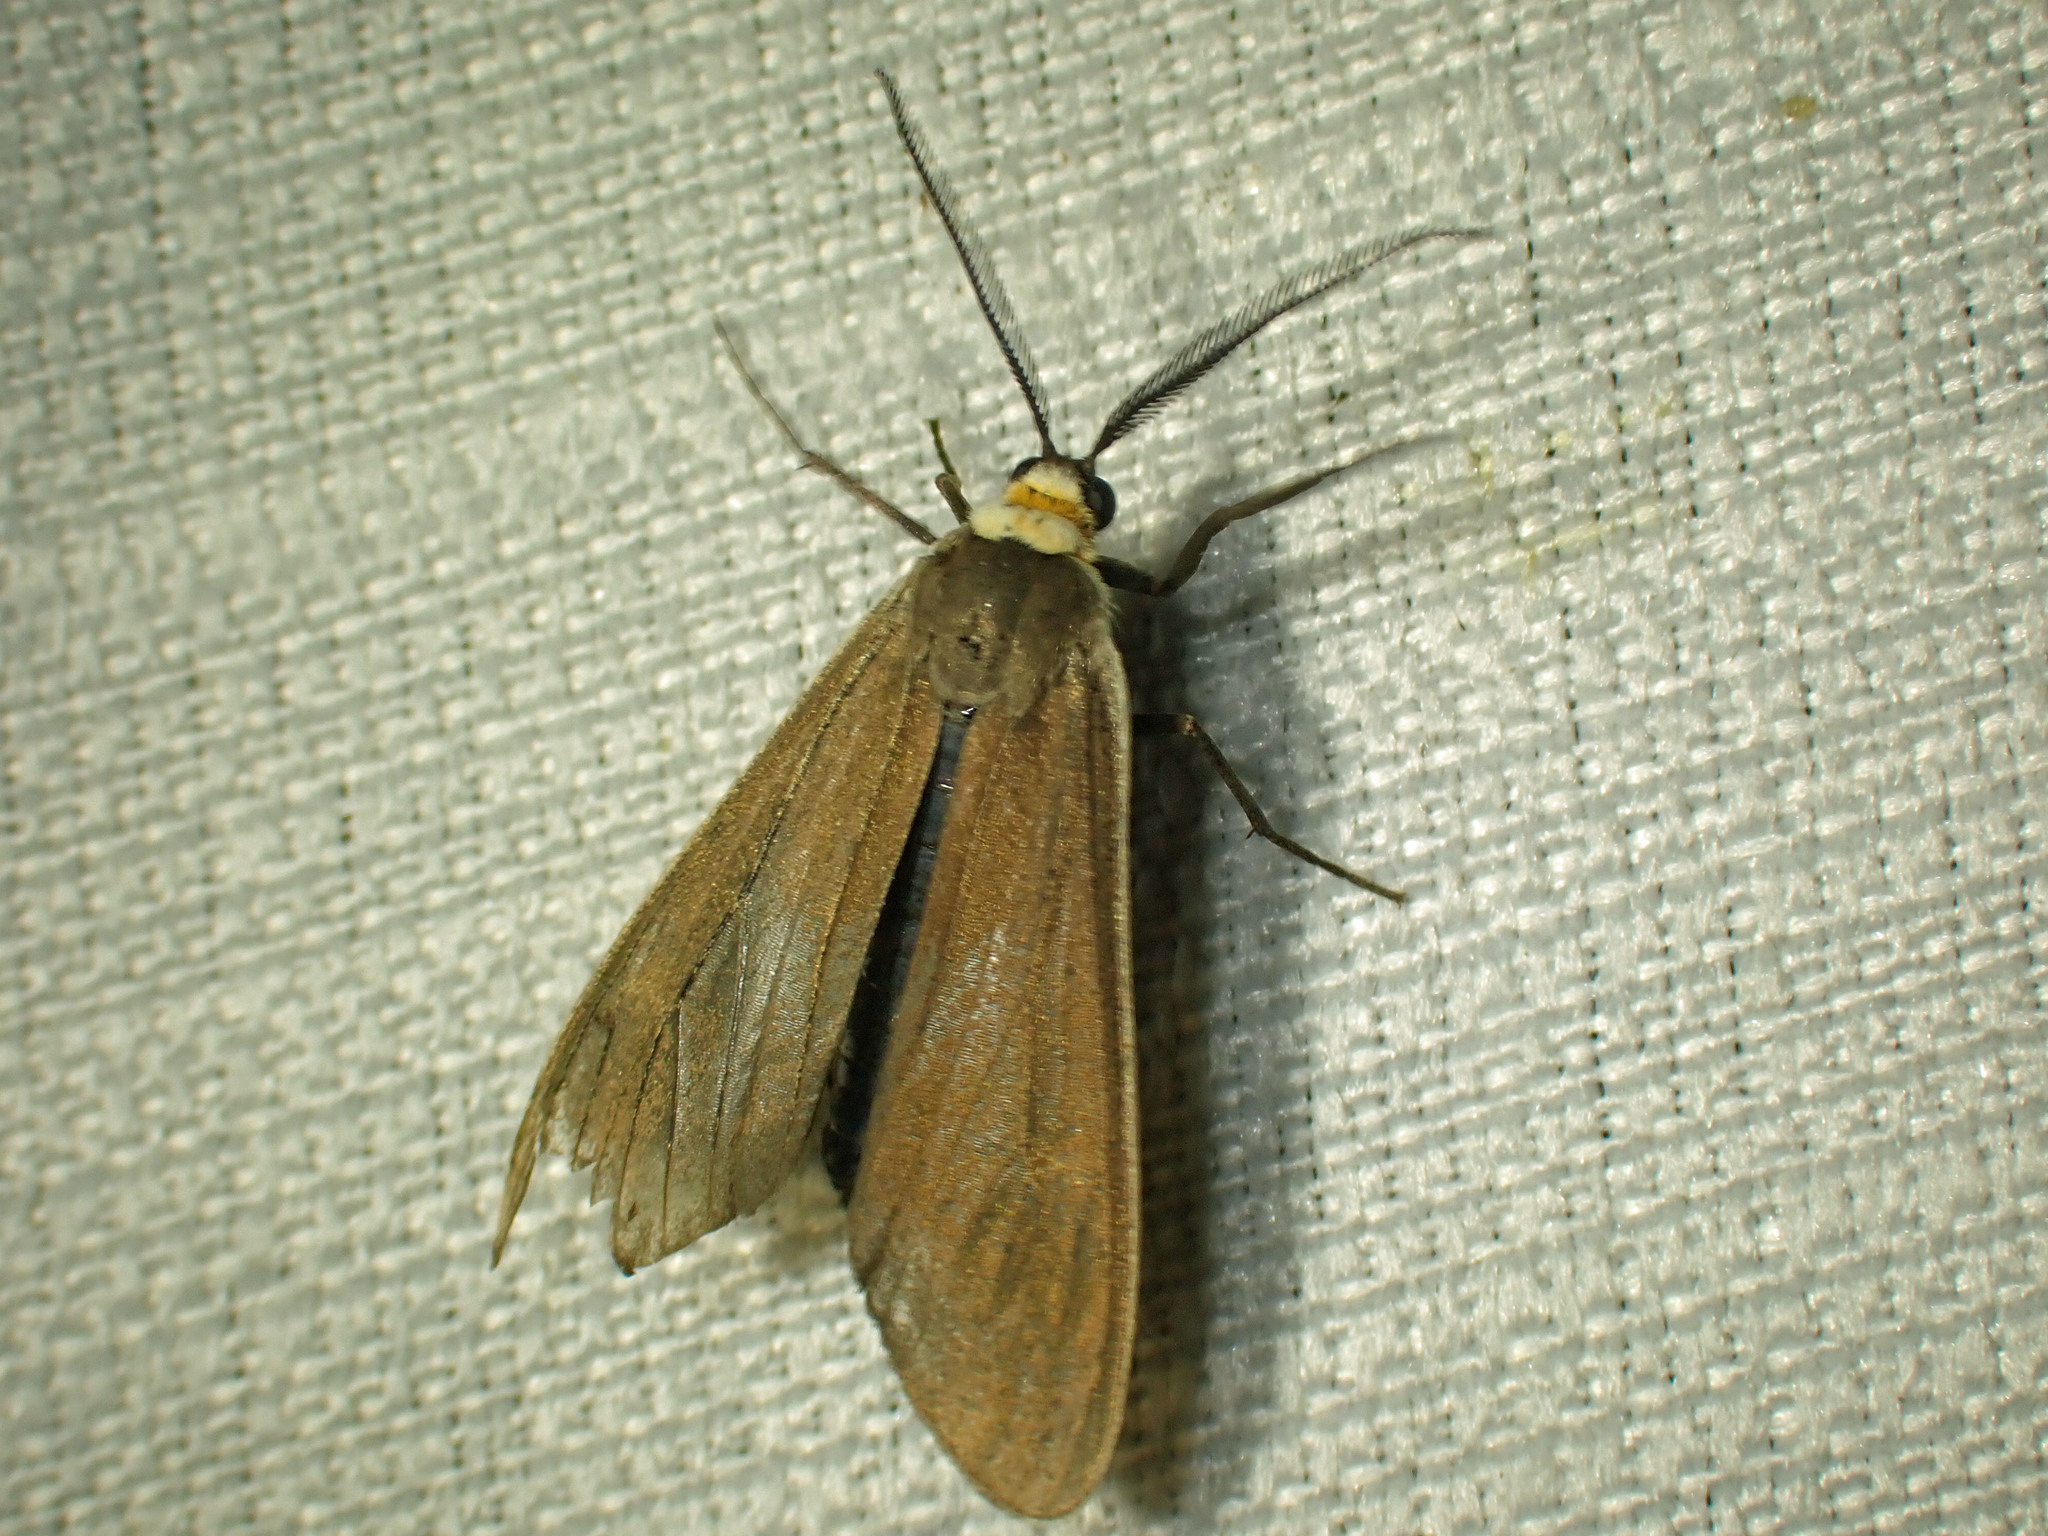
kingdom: Animalia
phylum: Arthropoda
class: Insecta
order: Lepidoptera
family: Erebidae
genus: Cisseps
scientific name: Cisseps fulvicollis
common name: Yellow-collared scape moth
